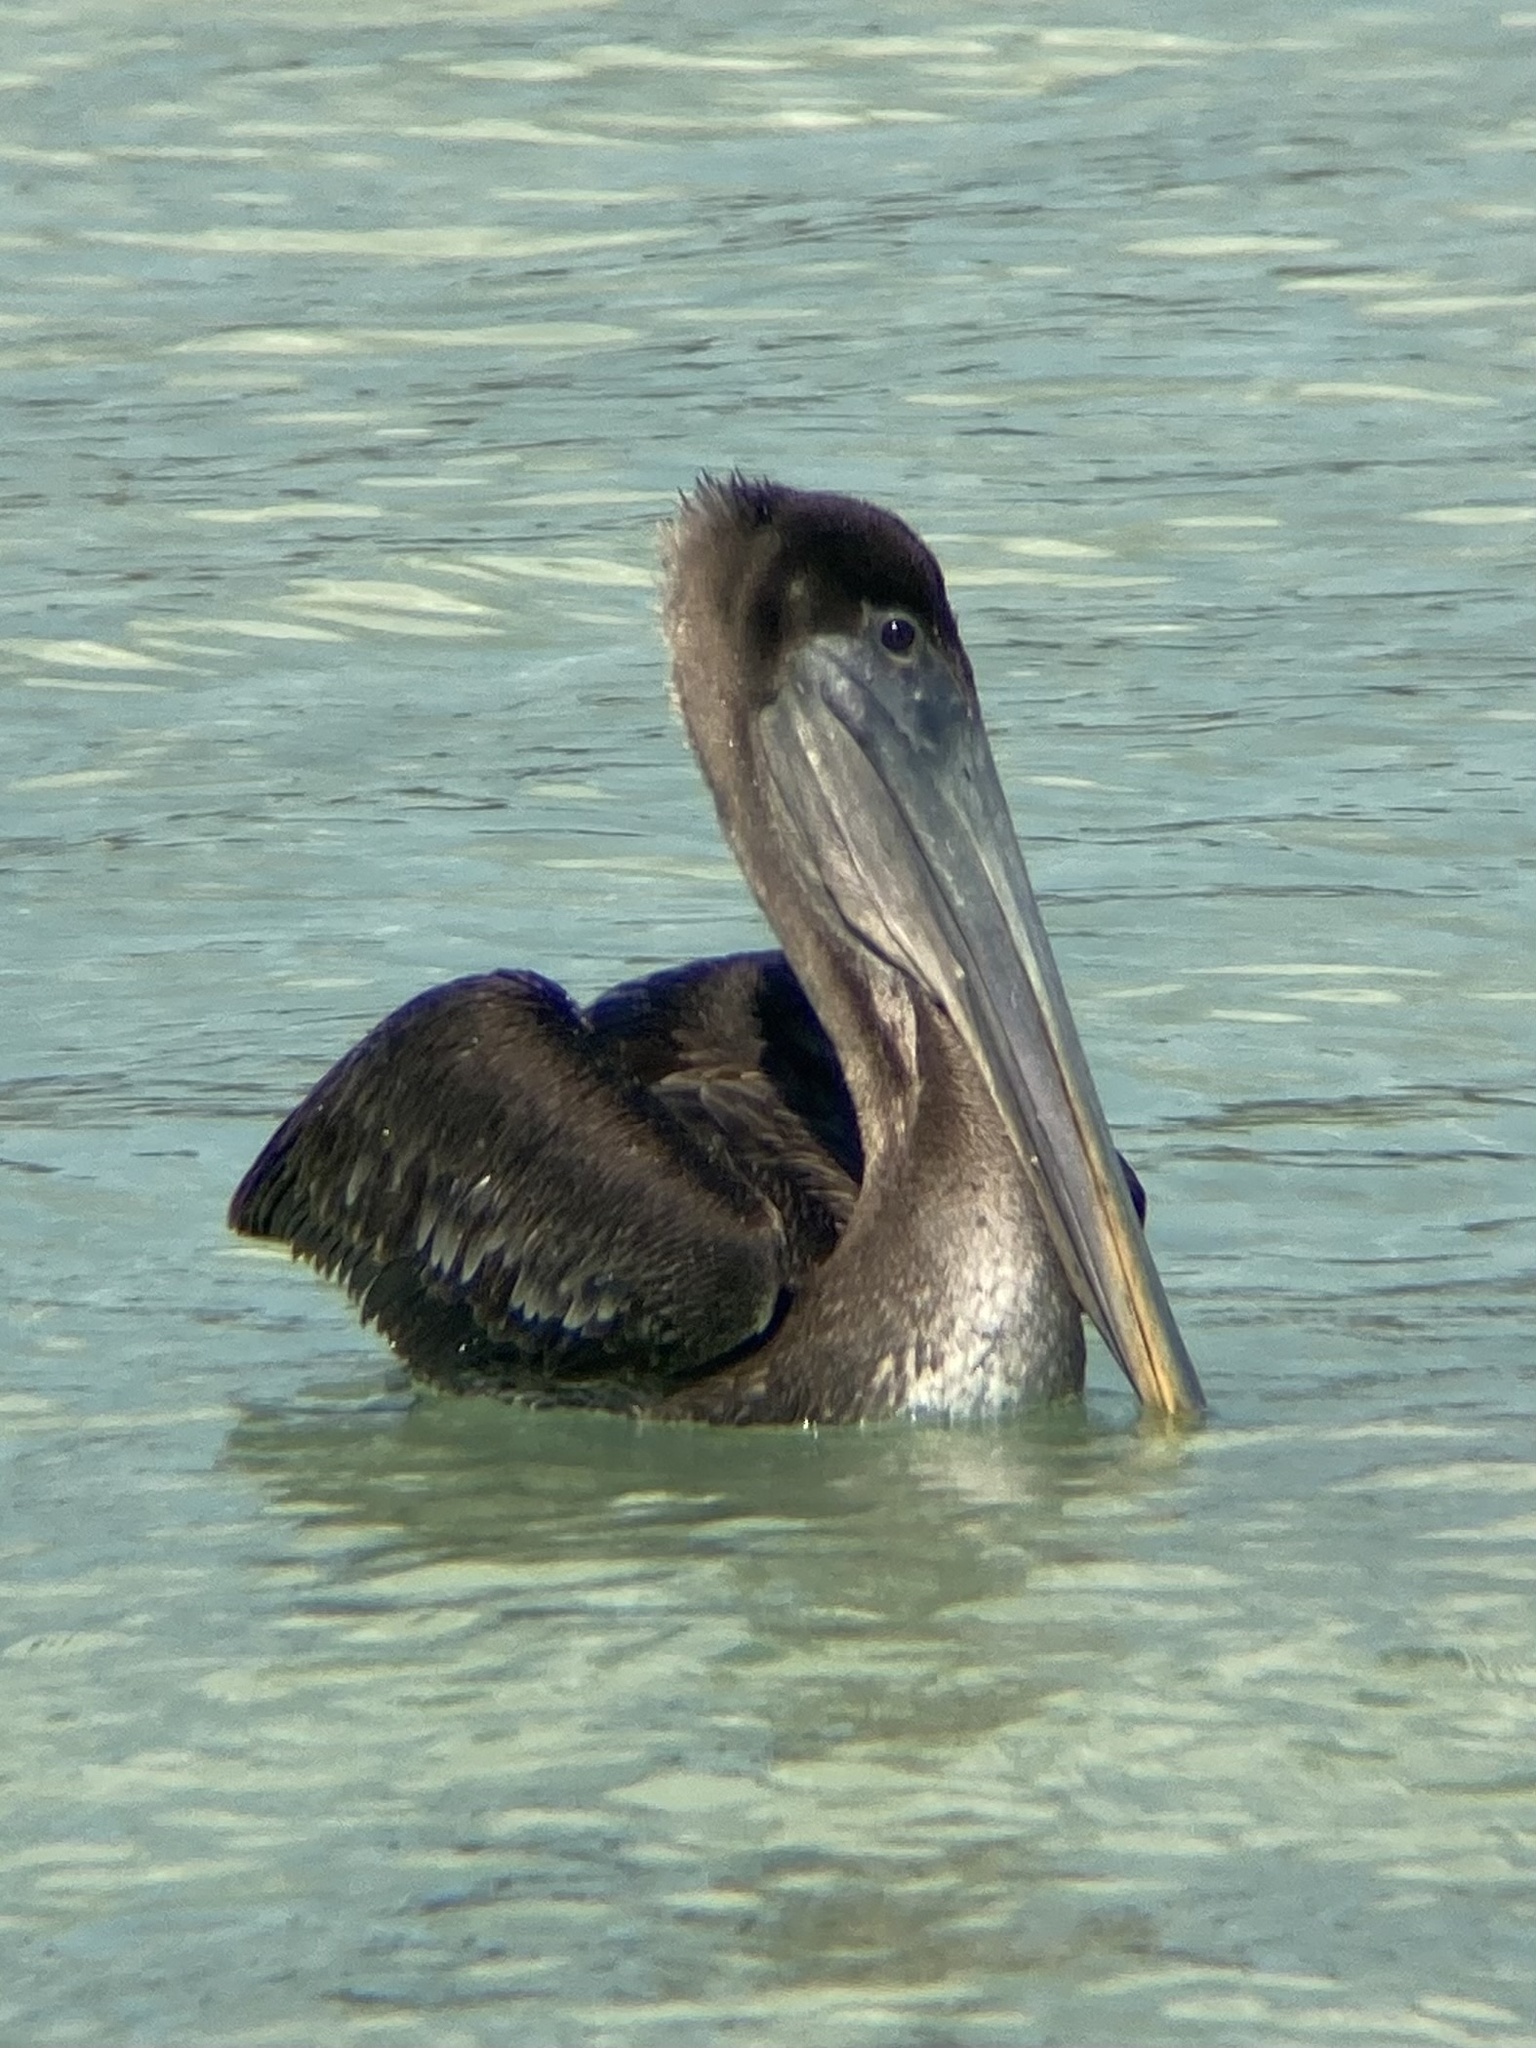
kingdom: Animalia
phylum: Chordata
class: Aves
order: Pelecaniformes
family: Pelecanidae
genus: Pelecanus
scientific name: Pelecanus occidentalis
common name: Brown pelican
